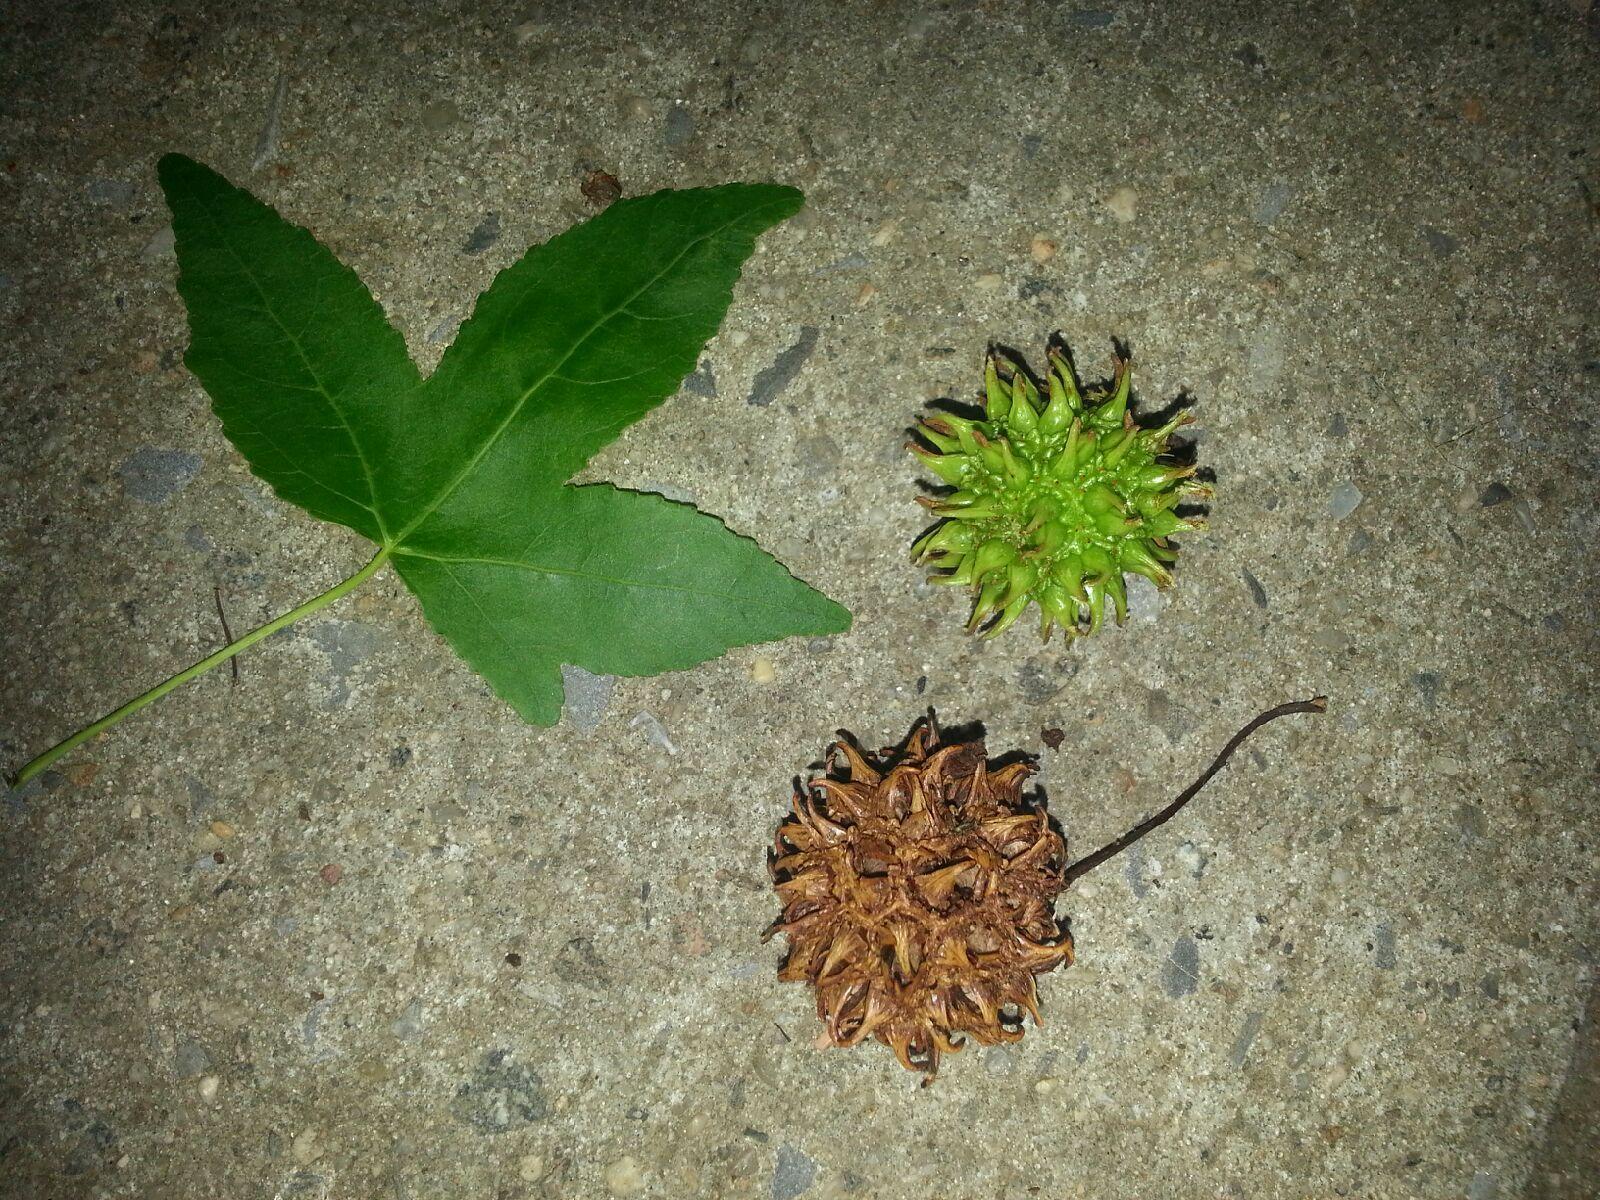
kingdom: Plantae
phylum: Tracheophyta
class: Magnoliopsida
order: Saxifragales
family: Altingiaceae
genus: Liquidambar
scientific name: Liquidambar styraciflua
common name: Sweet gum
